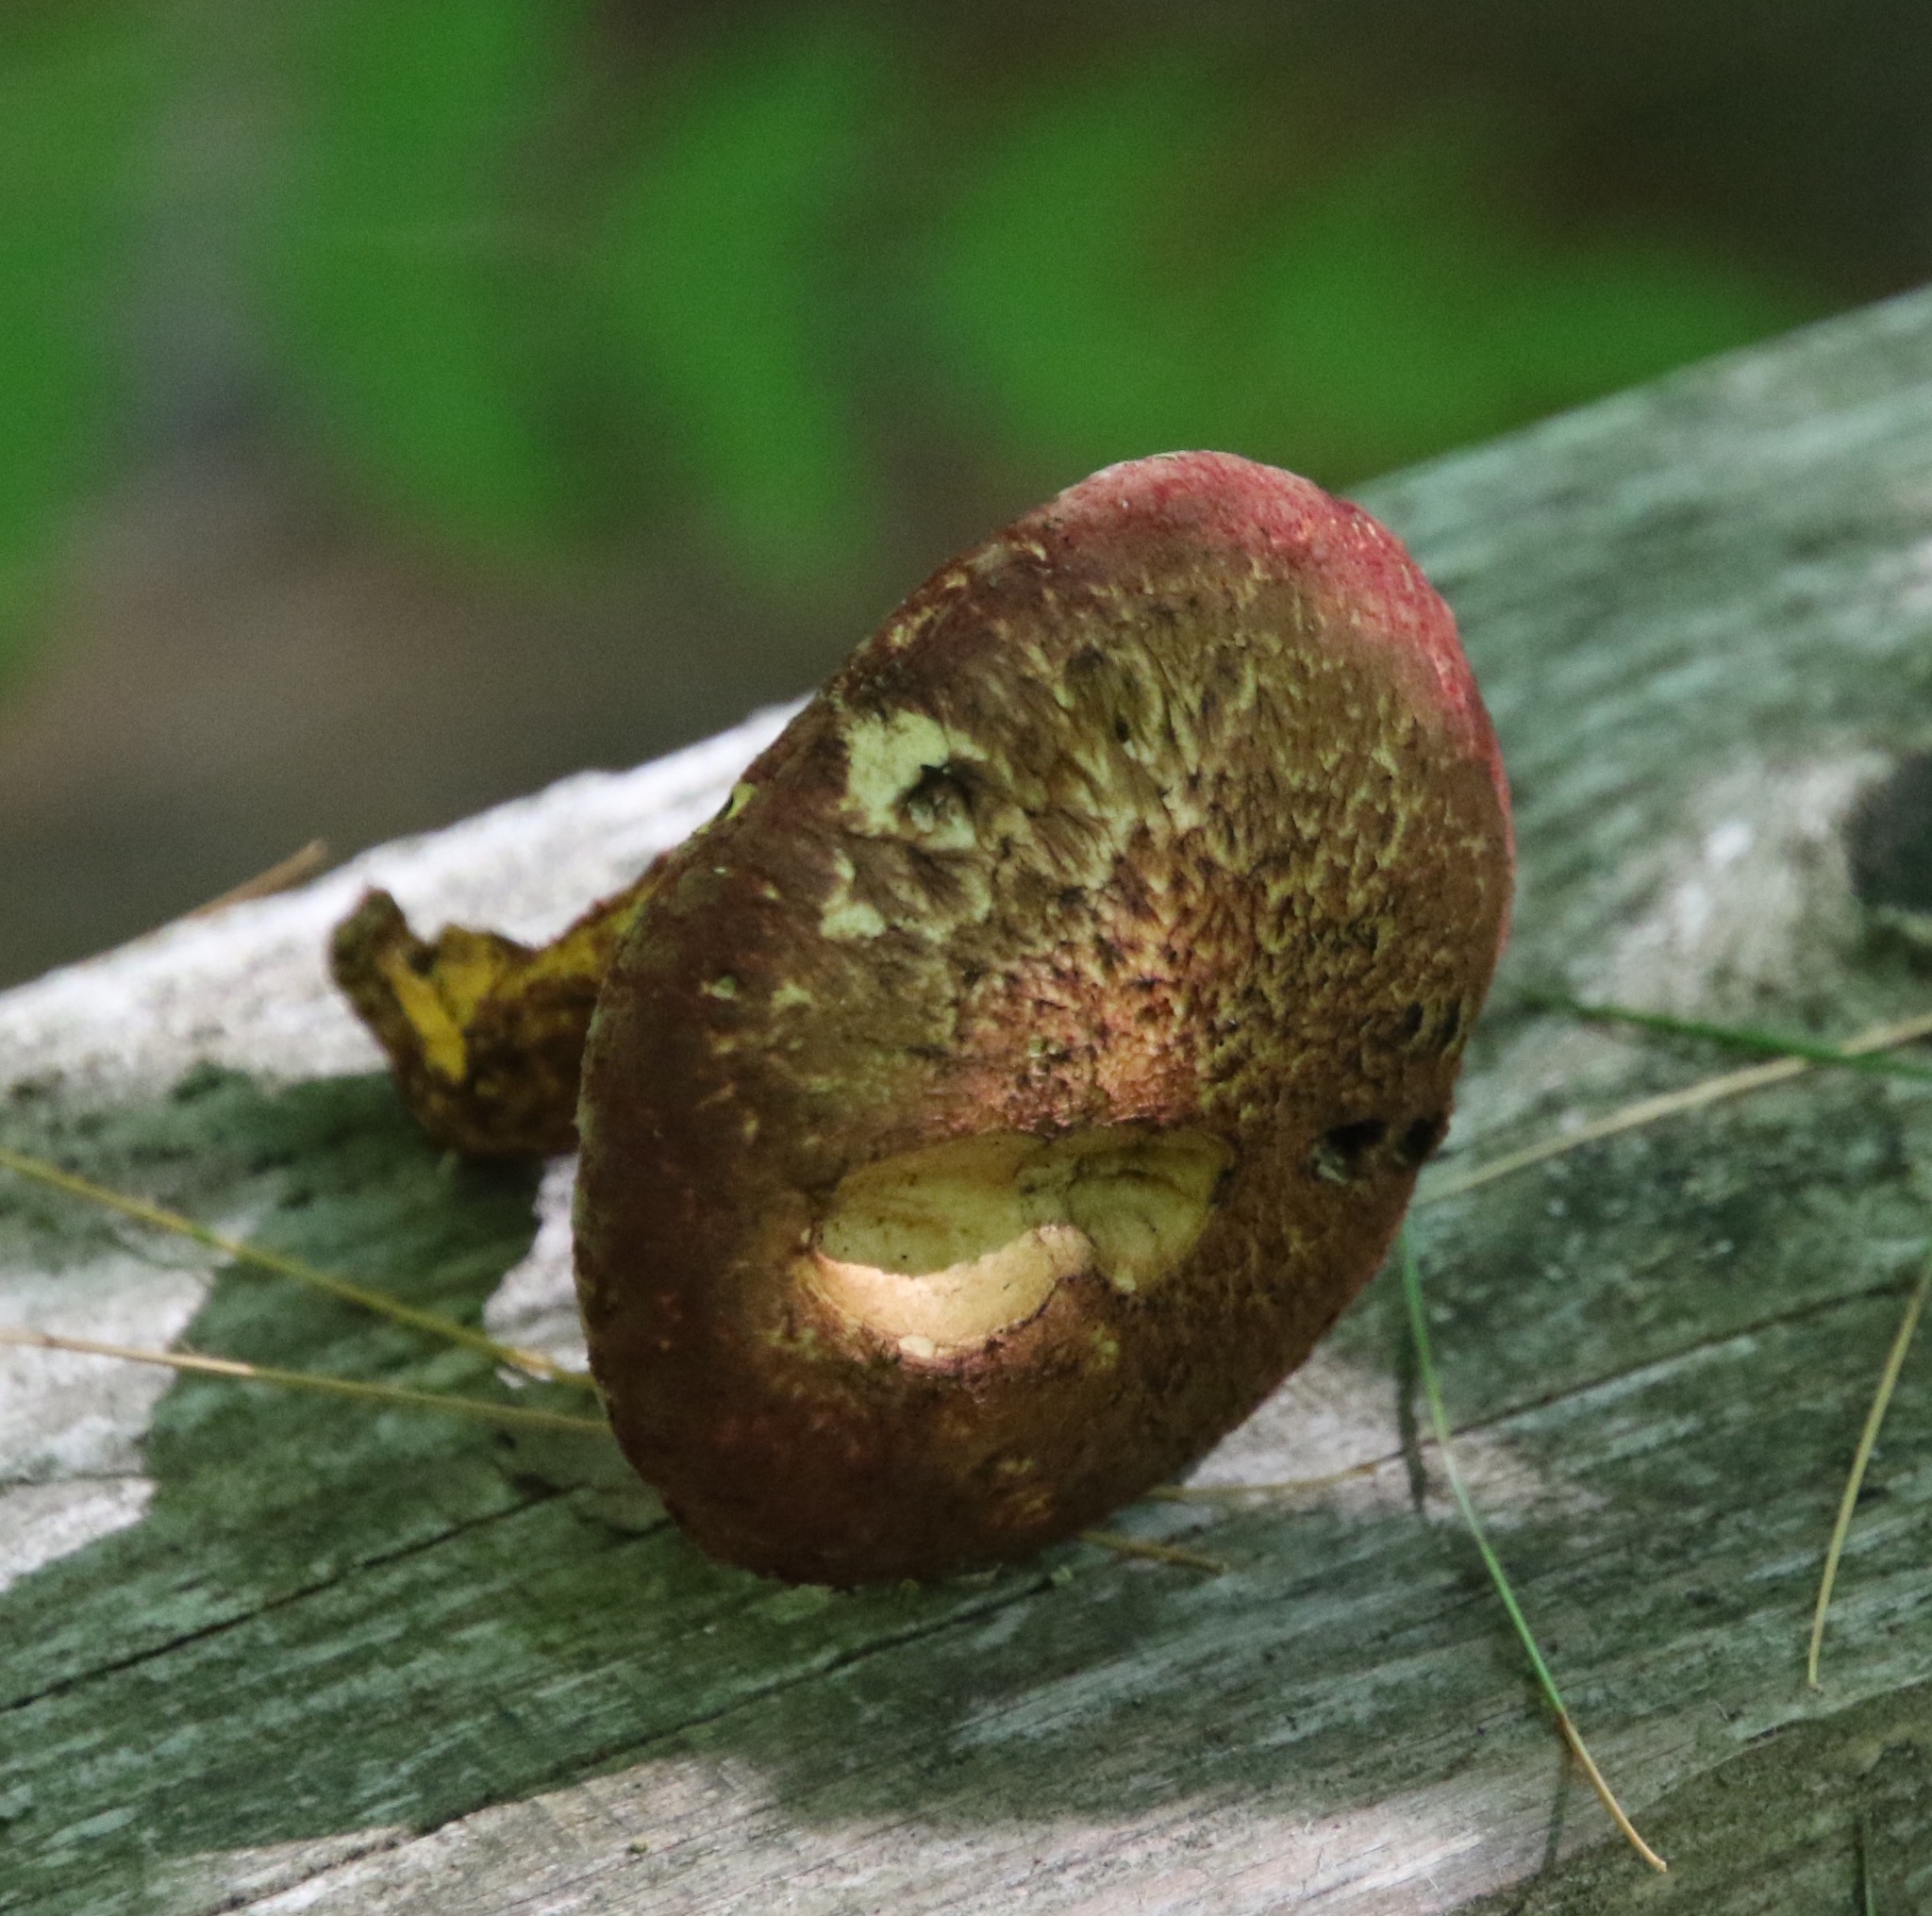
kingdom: Fungi
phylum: Basidiomycota
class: Agaricomycetes
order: Boletales
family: Suillaceae
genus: Suillus
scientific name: Suillus spraguei
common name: Painted suillus
